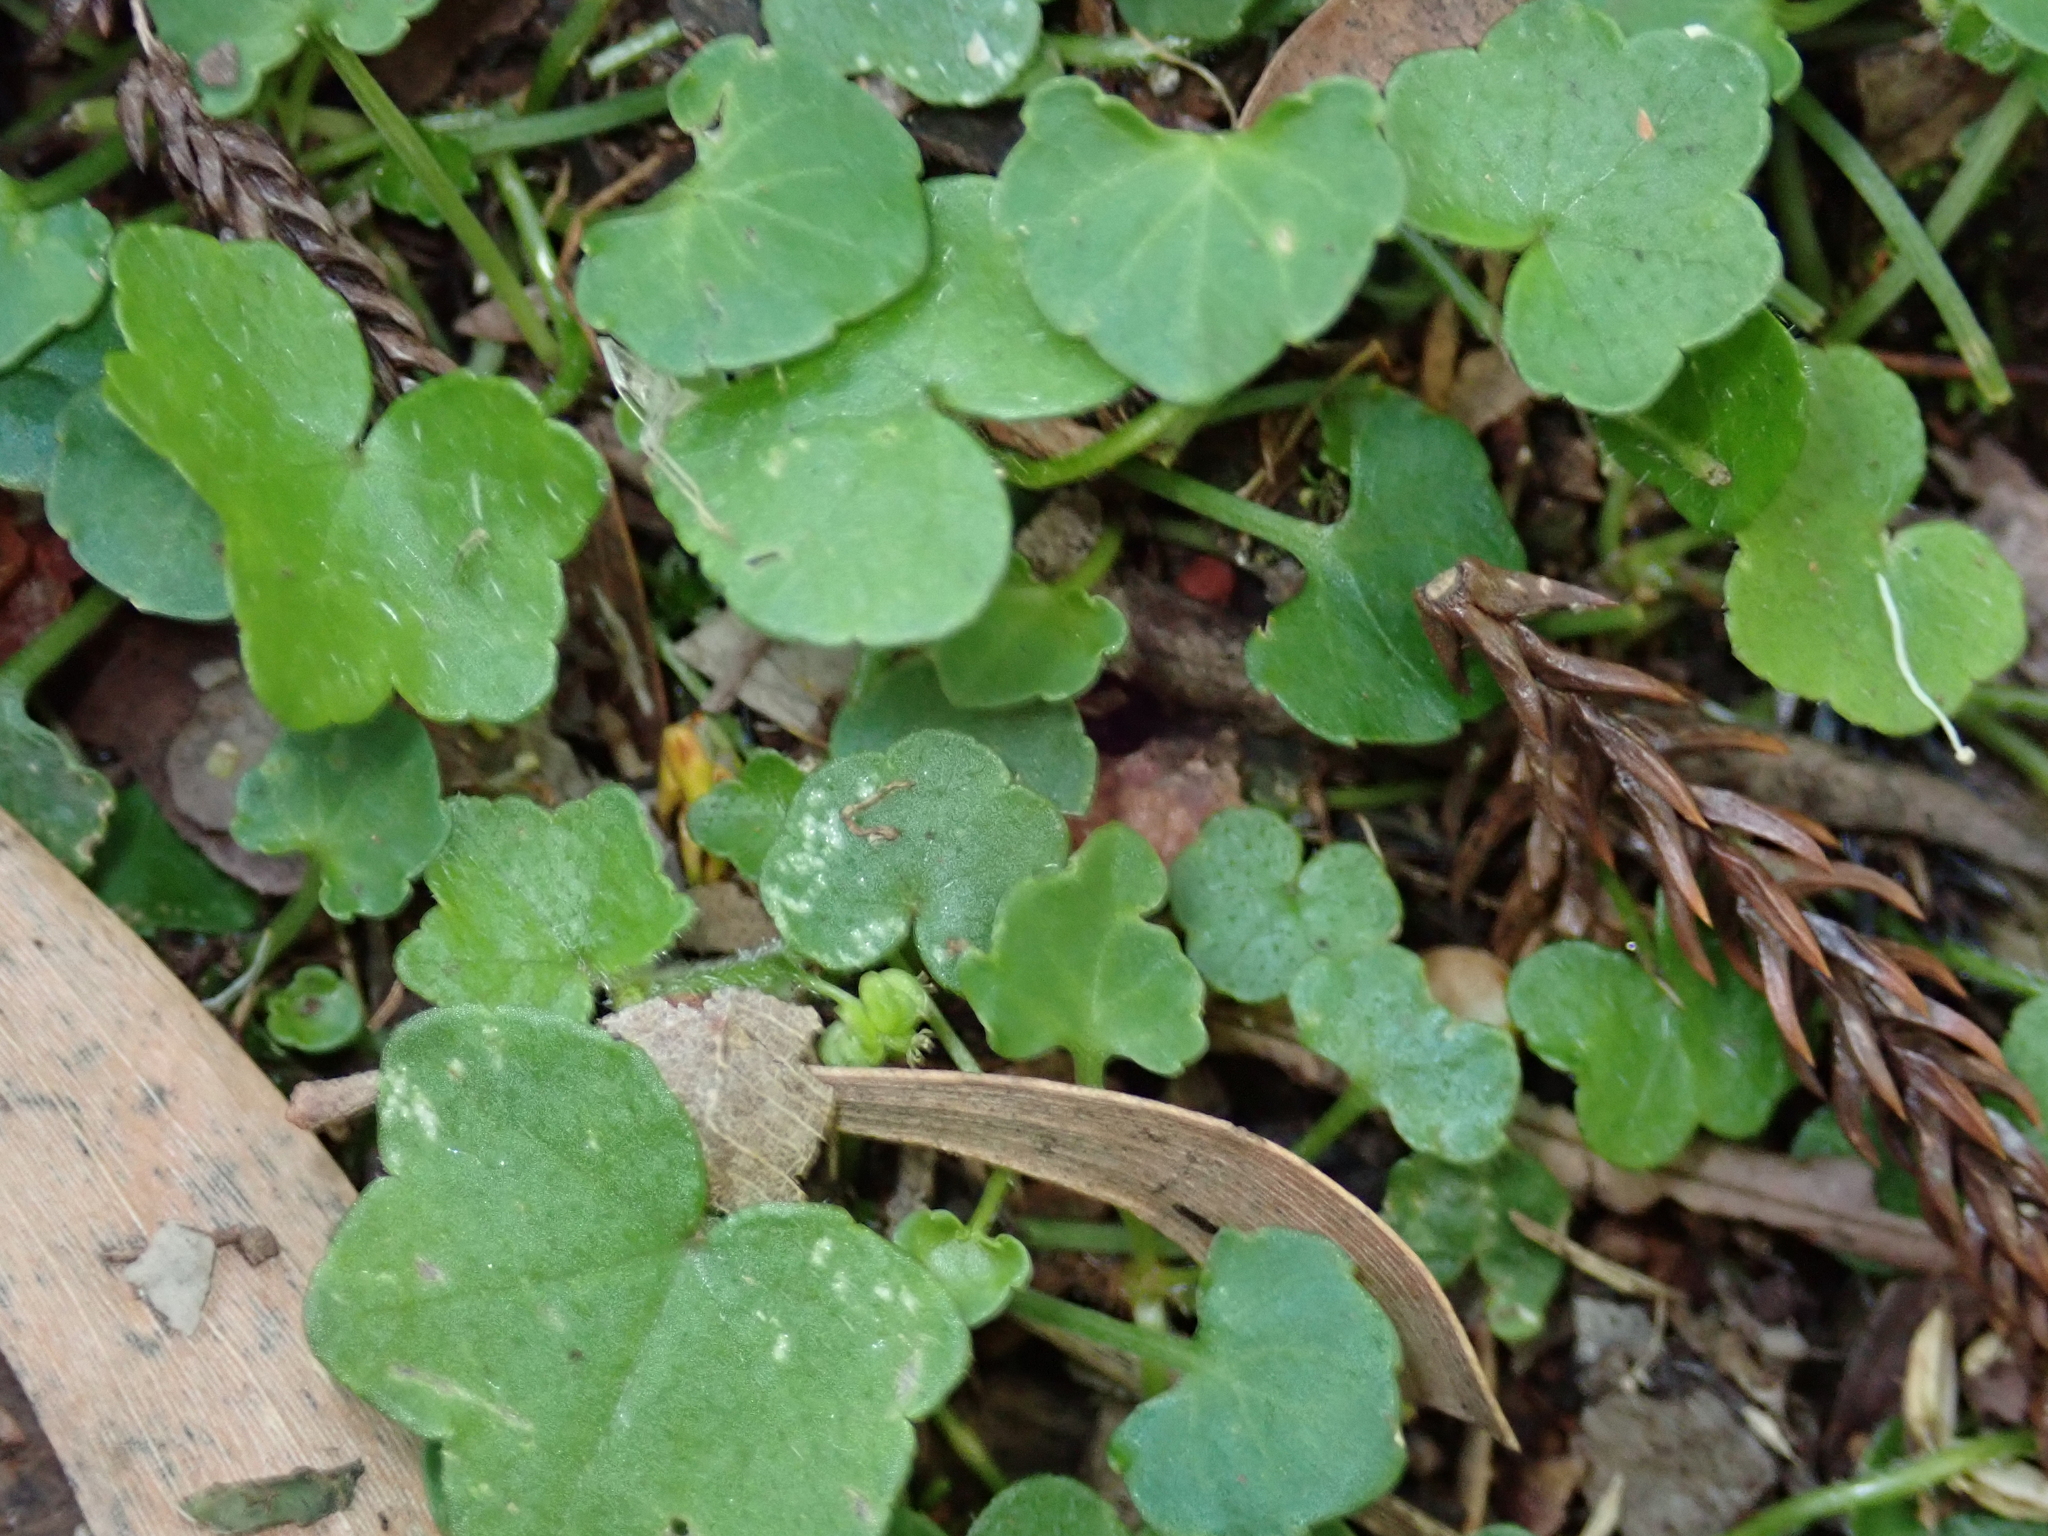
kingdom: Plantae
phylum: Tracheophyta
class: Magnoliopsida
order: Apiales
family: Araliaceae
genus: Hydrocotyle
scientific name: Hydrocotyle hirta
